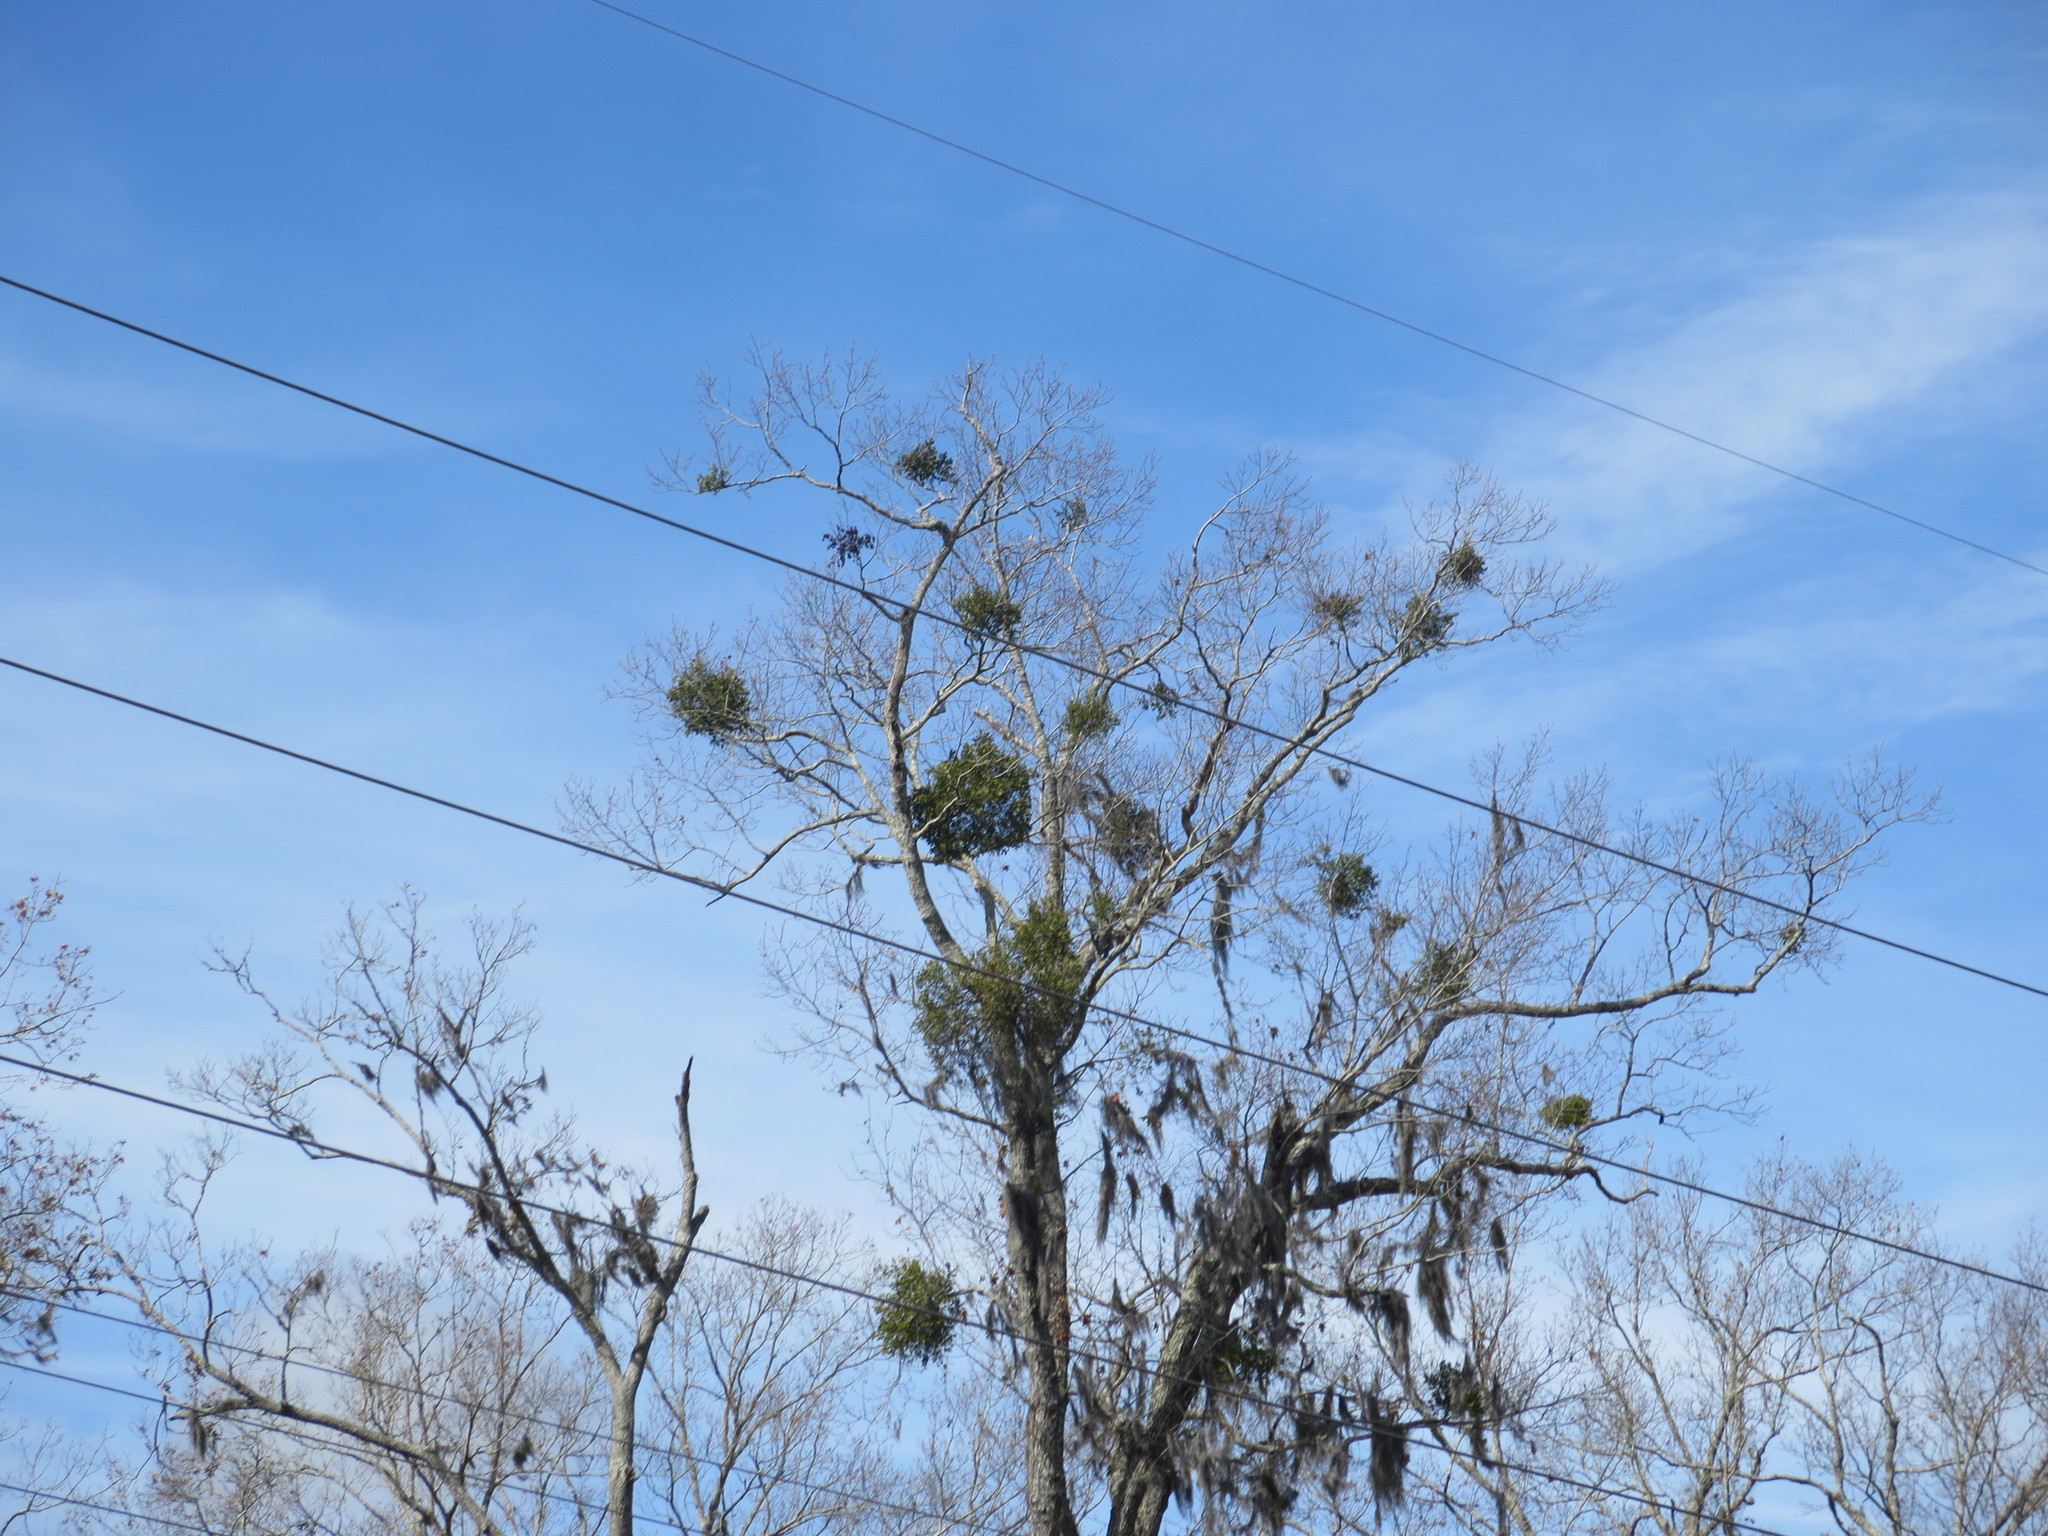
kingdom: Plantae
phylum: Tracheophyta
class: Magnoliopsida
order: Santalales
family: Viscaceae
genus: Phoradendron
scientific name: Phoradendron leucarpum
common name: Pacific mistletoe
